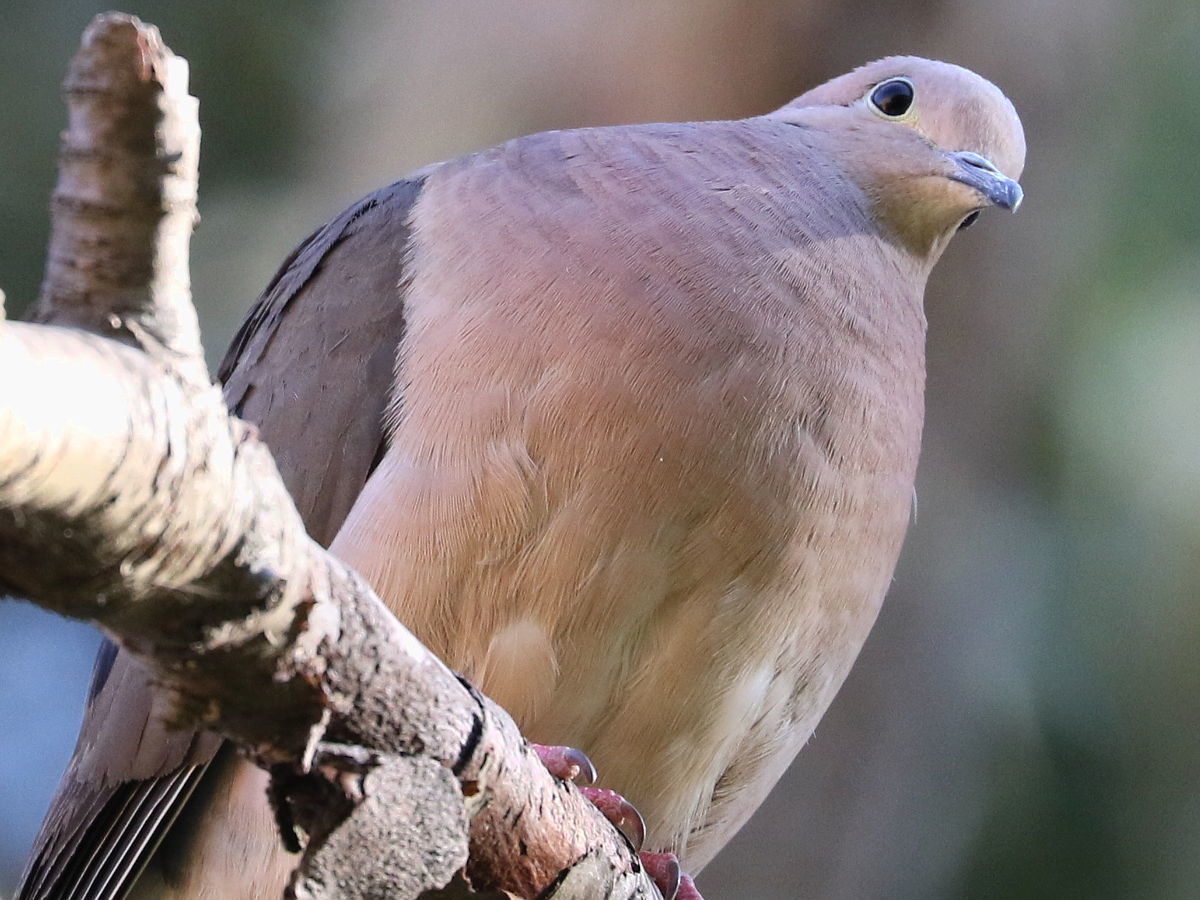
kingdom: Animalia
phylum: Chordata
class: Aves
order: Columbiformes
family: Columbidae
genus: Zenaida
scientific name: Zenaida auriculata
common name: Eared dove
